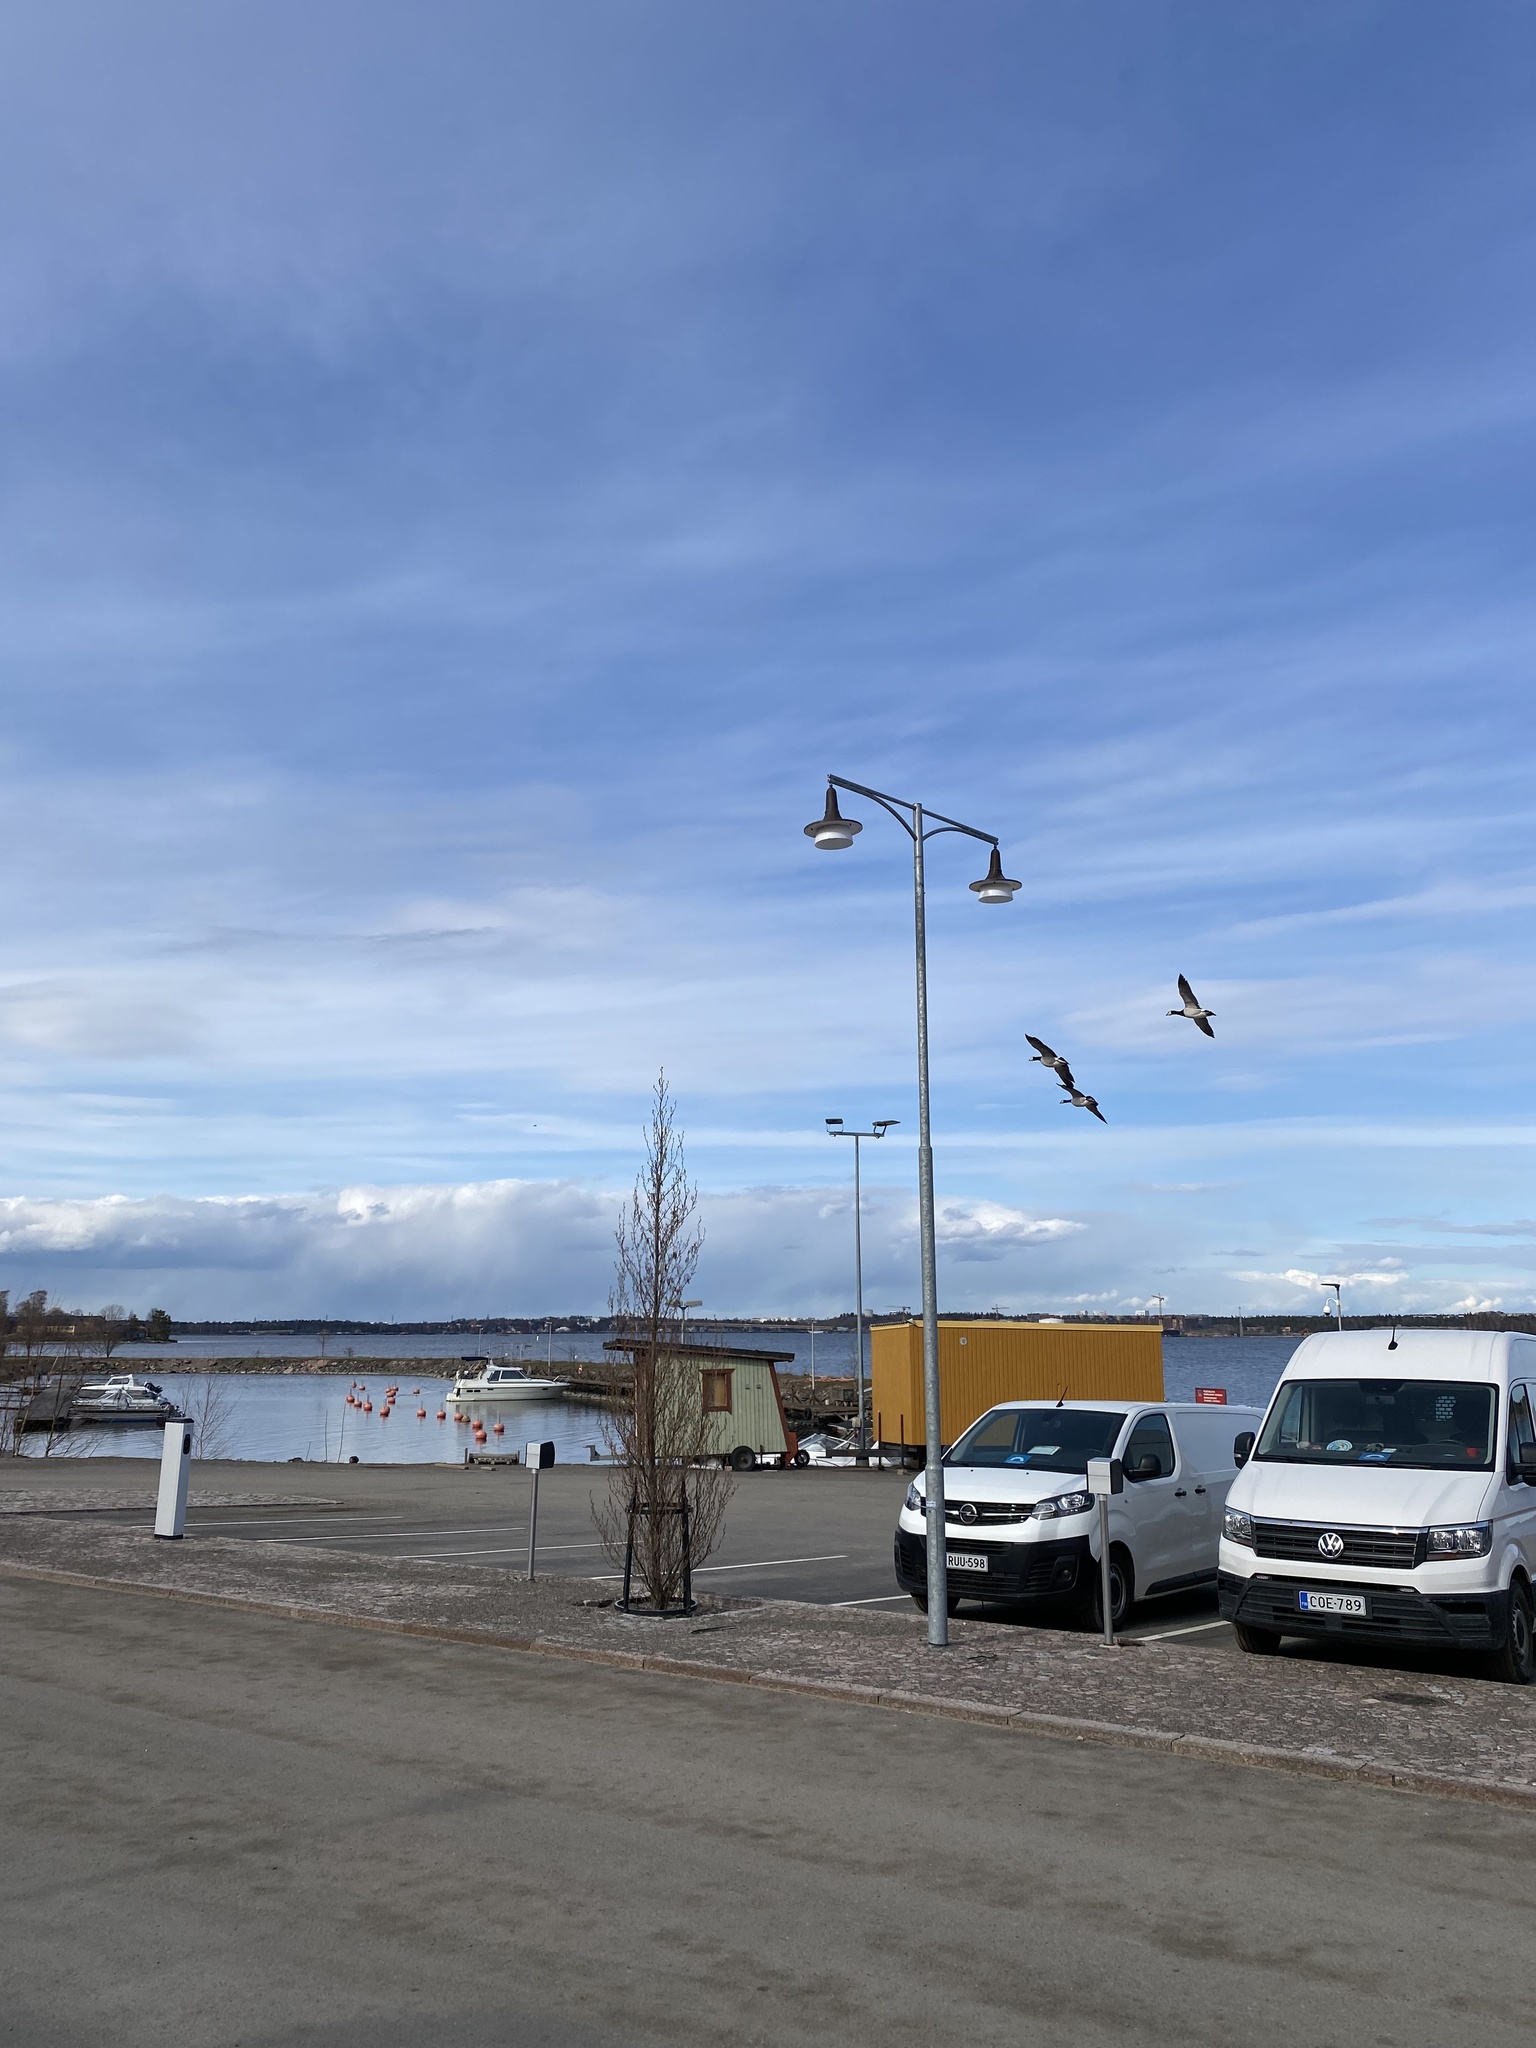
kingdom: Animalia
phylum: Chordata
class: Aves
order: Anseriformes
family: Anatidae
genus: Branta
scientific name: Branta leucopsis
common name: Barnacle goose
